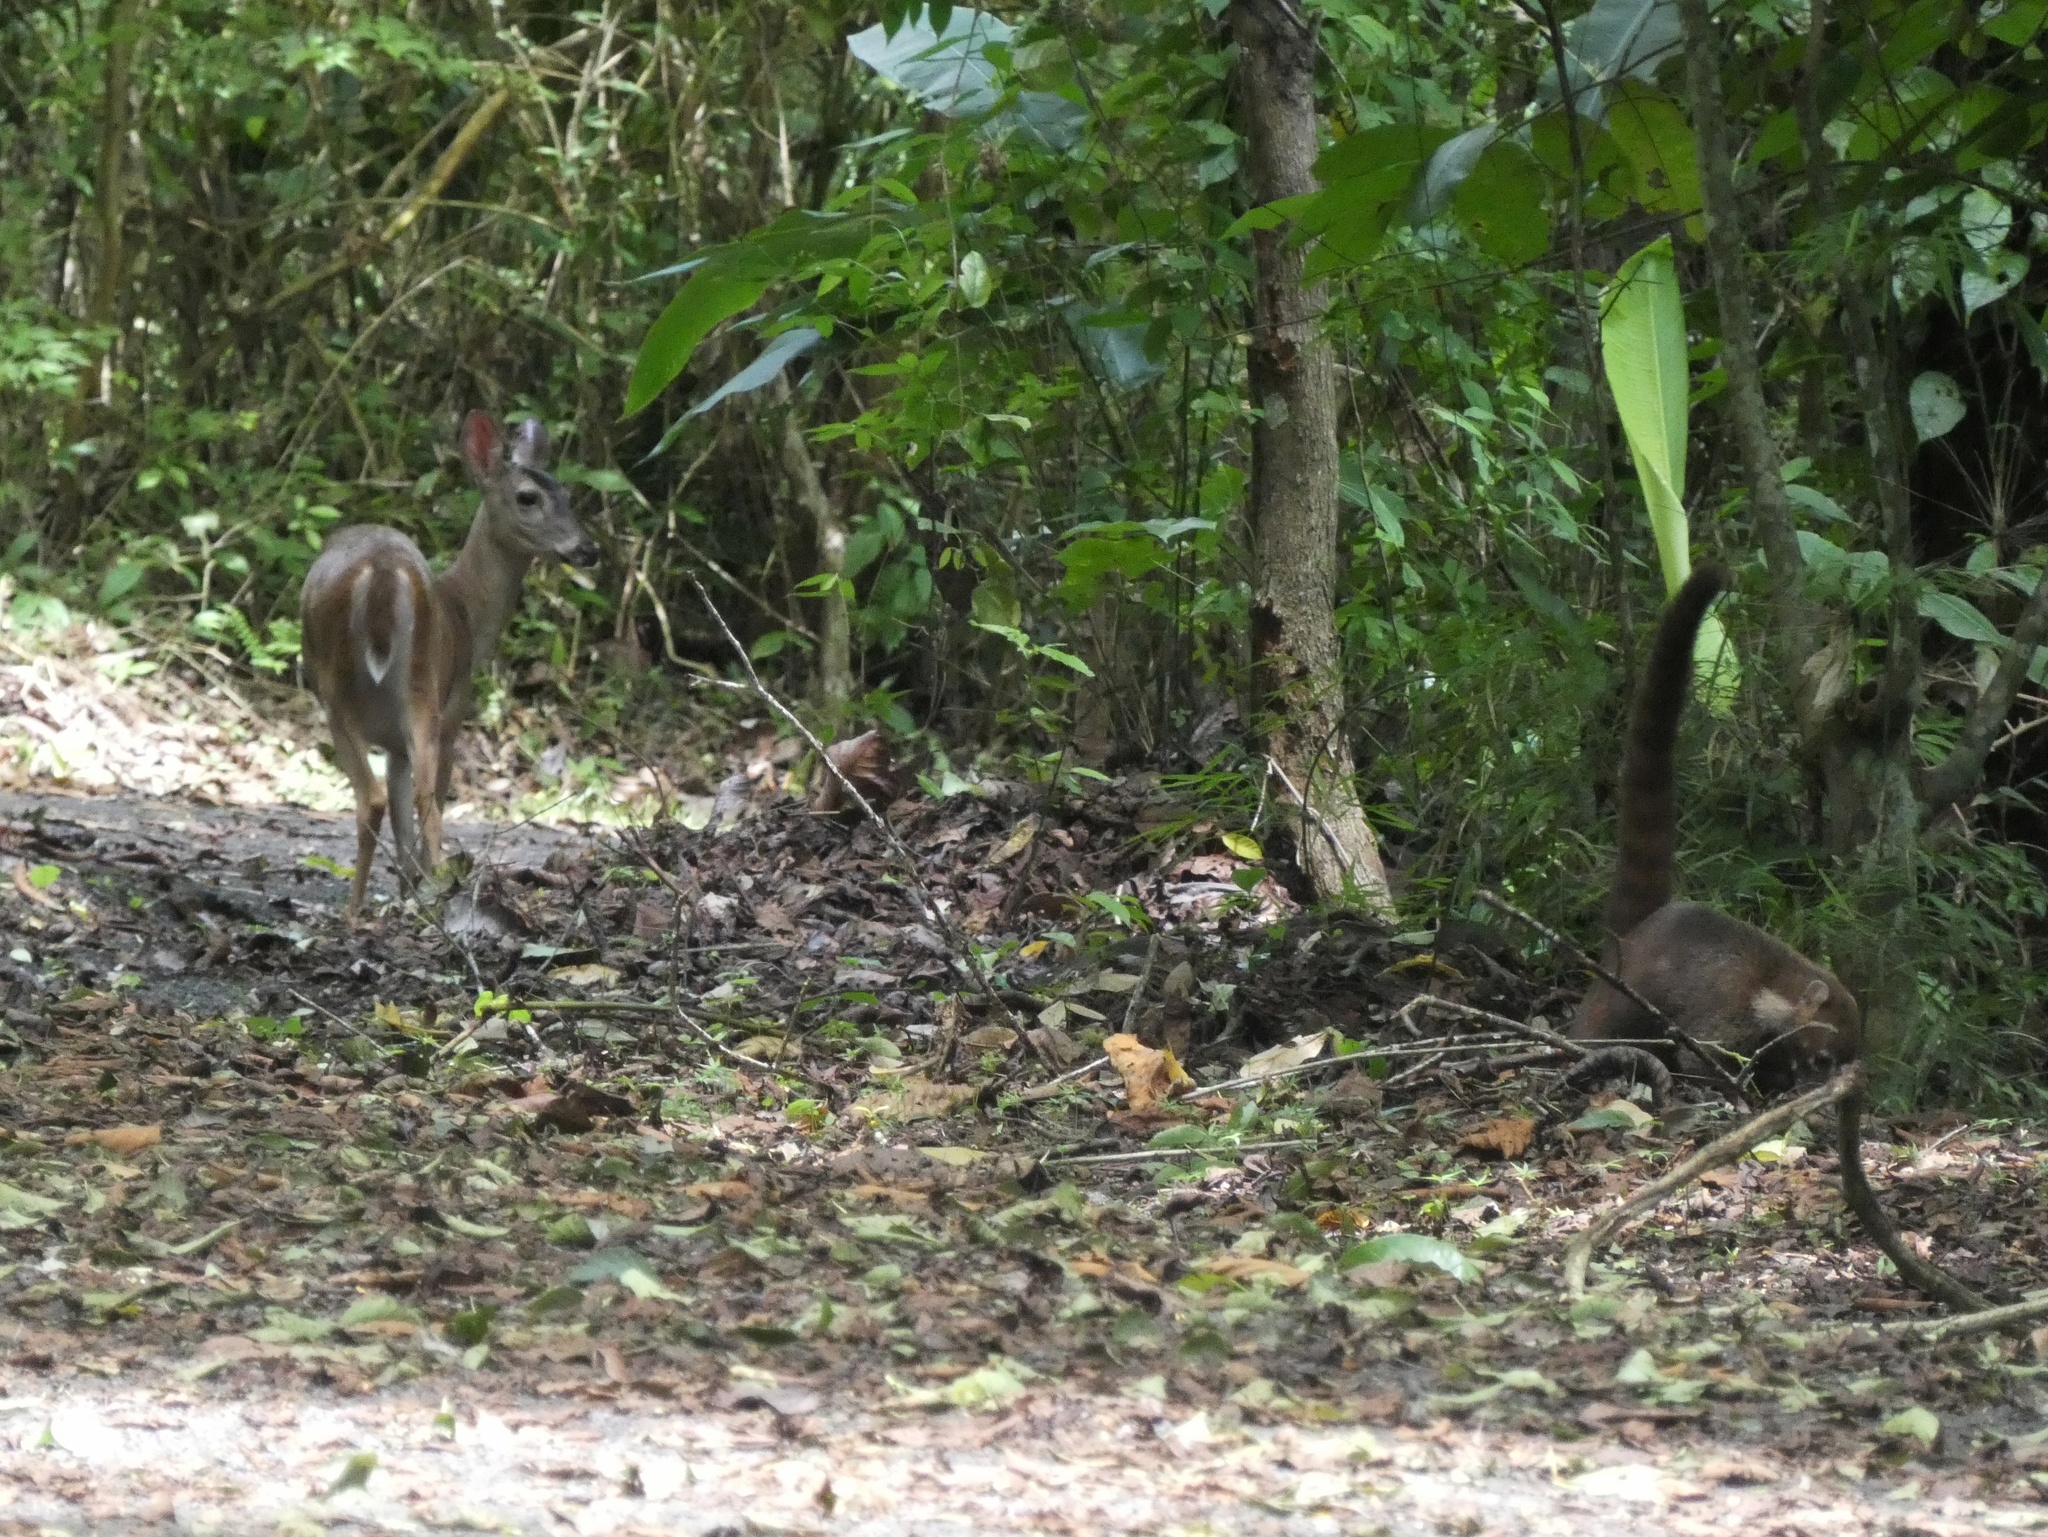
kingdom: Animalia
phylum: Chordata
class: Mammalia
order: Artiodactyla
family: Cervidae
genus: Odocoileus
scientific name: Odocoileus virginianus
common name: White-tailed deer
